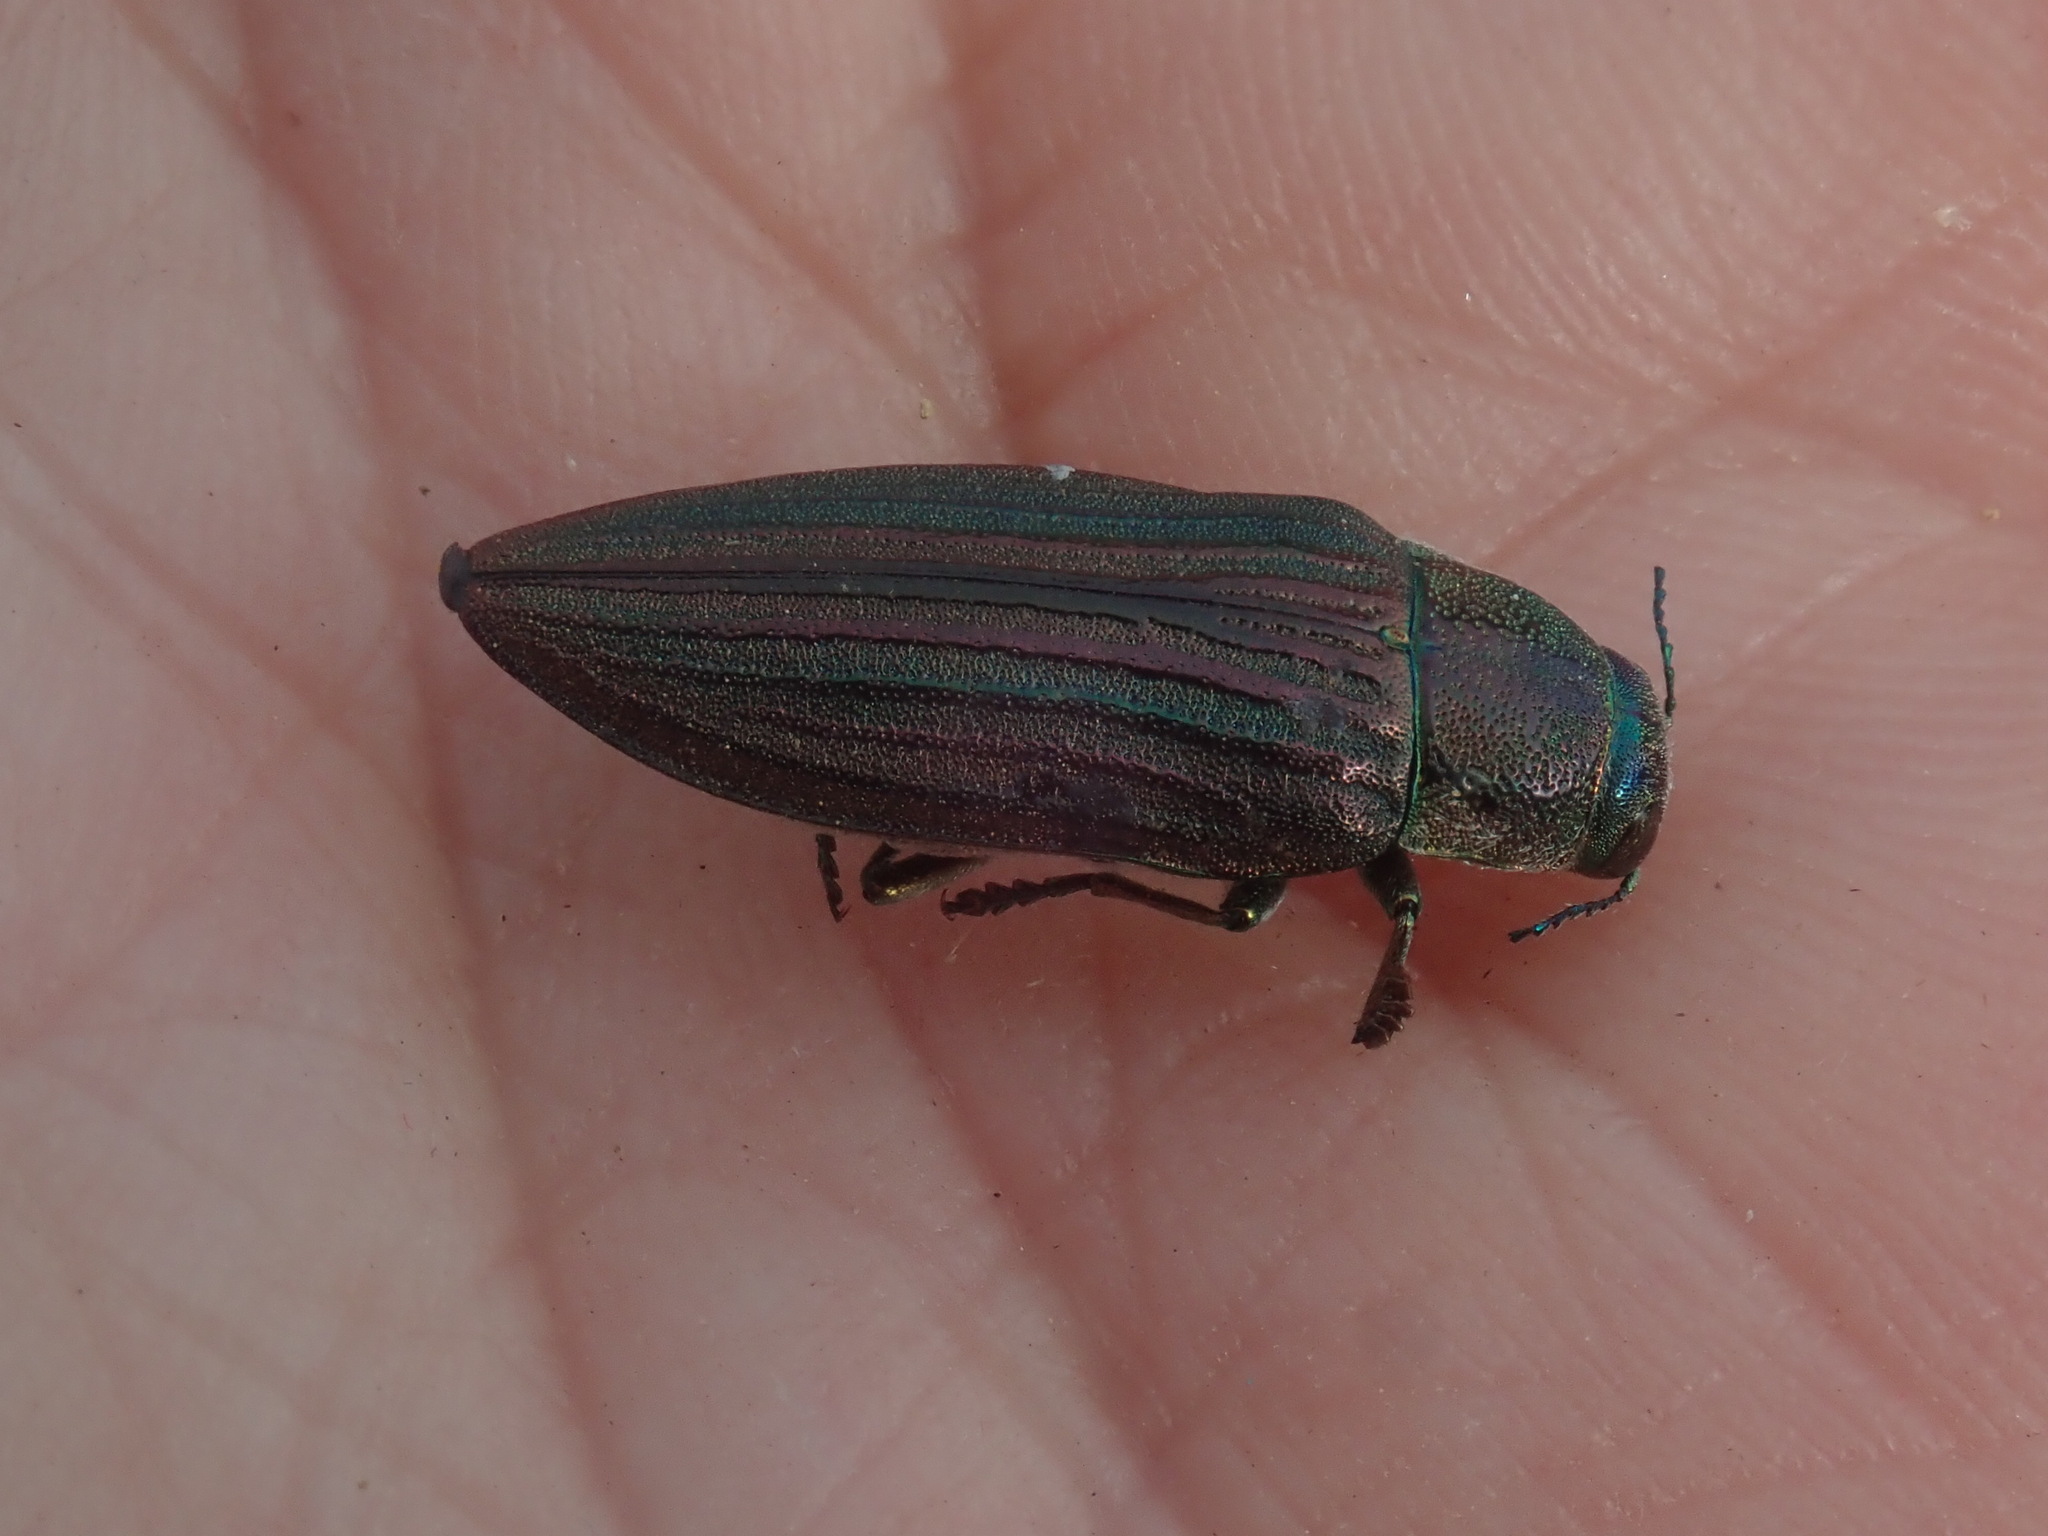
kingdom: Animalia
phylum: Arthropoda
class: Insecta
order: Coleoptera
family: Buprestidae
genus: Buprestis
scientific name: Buprestis striata
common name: Striated jewel beetle
